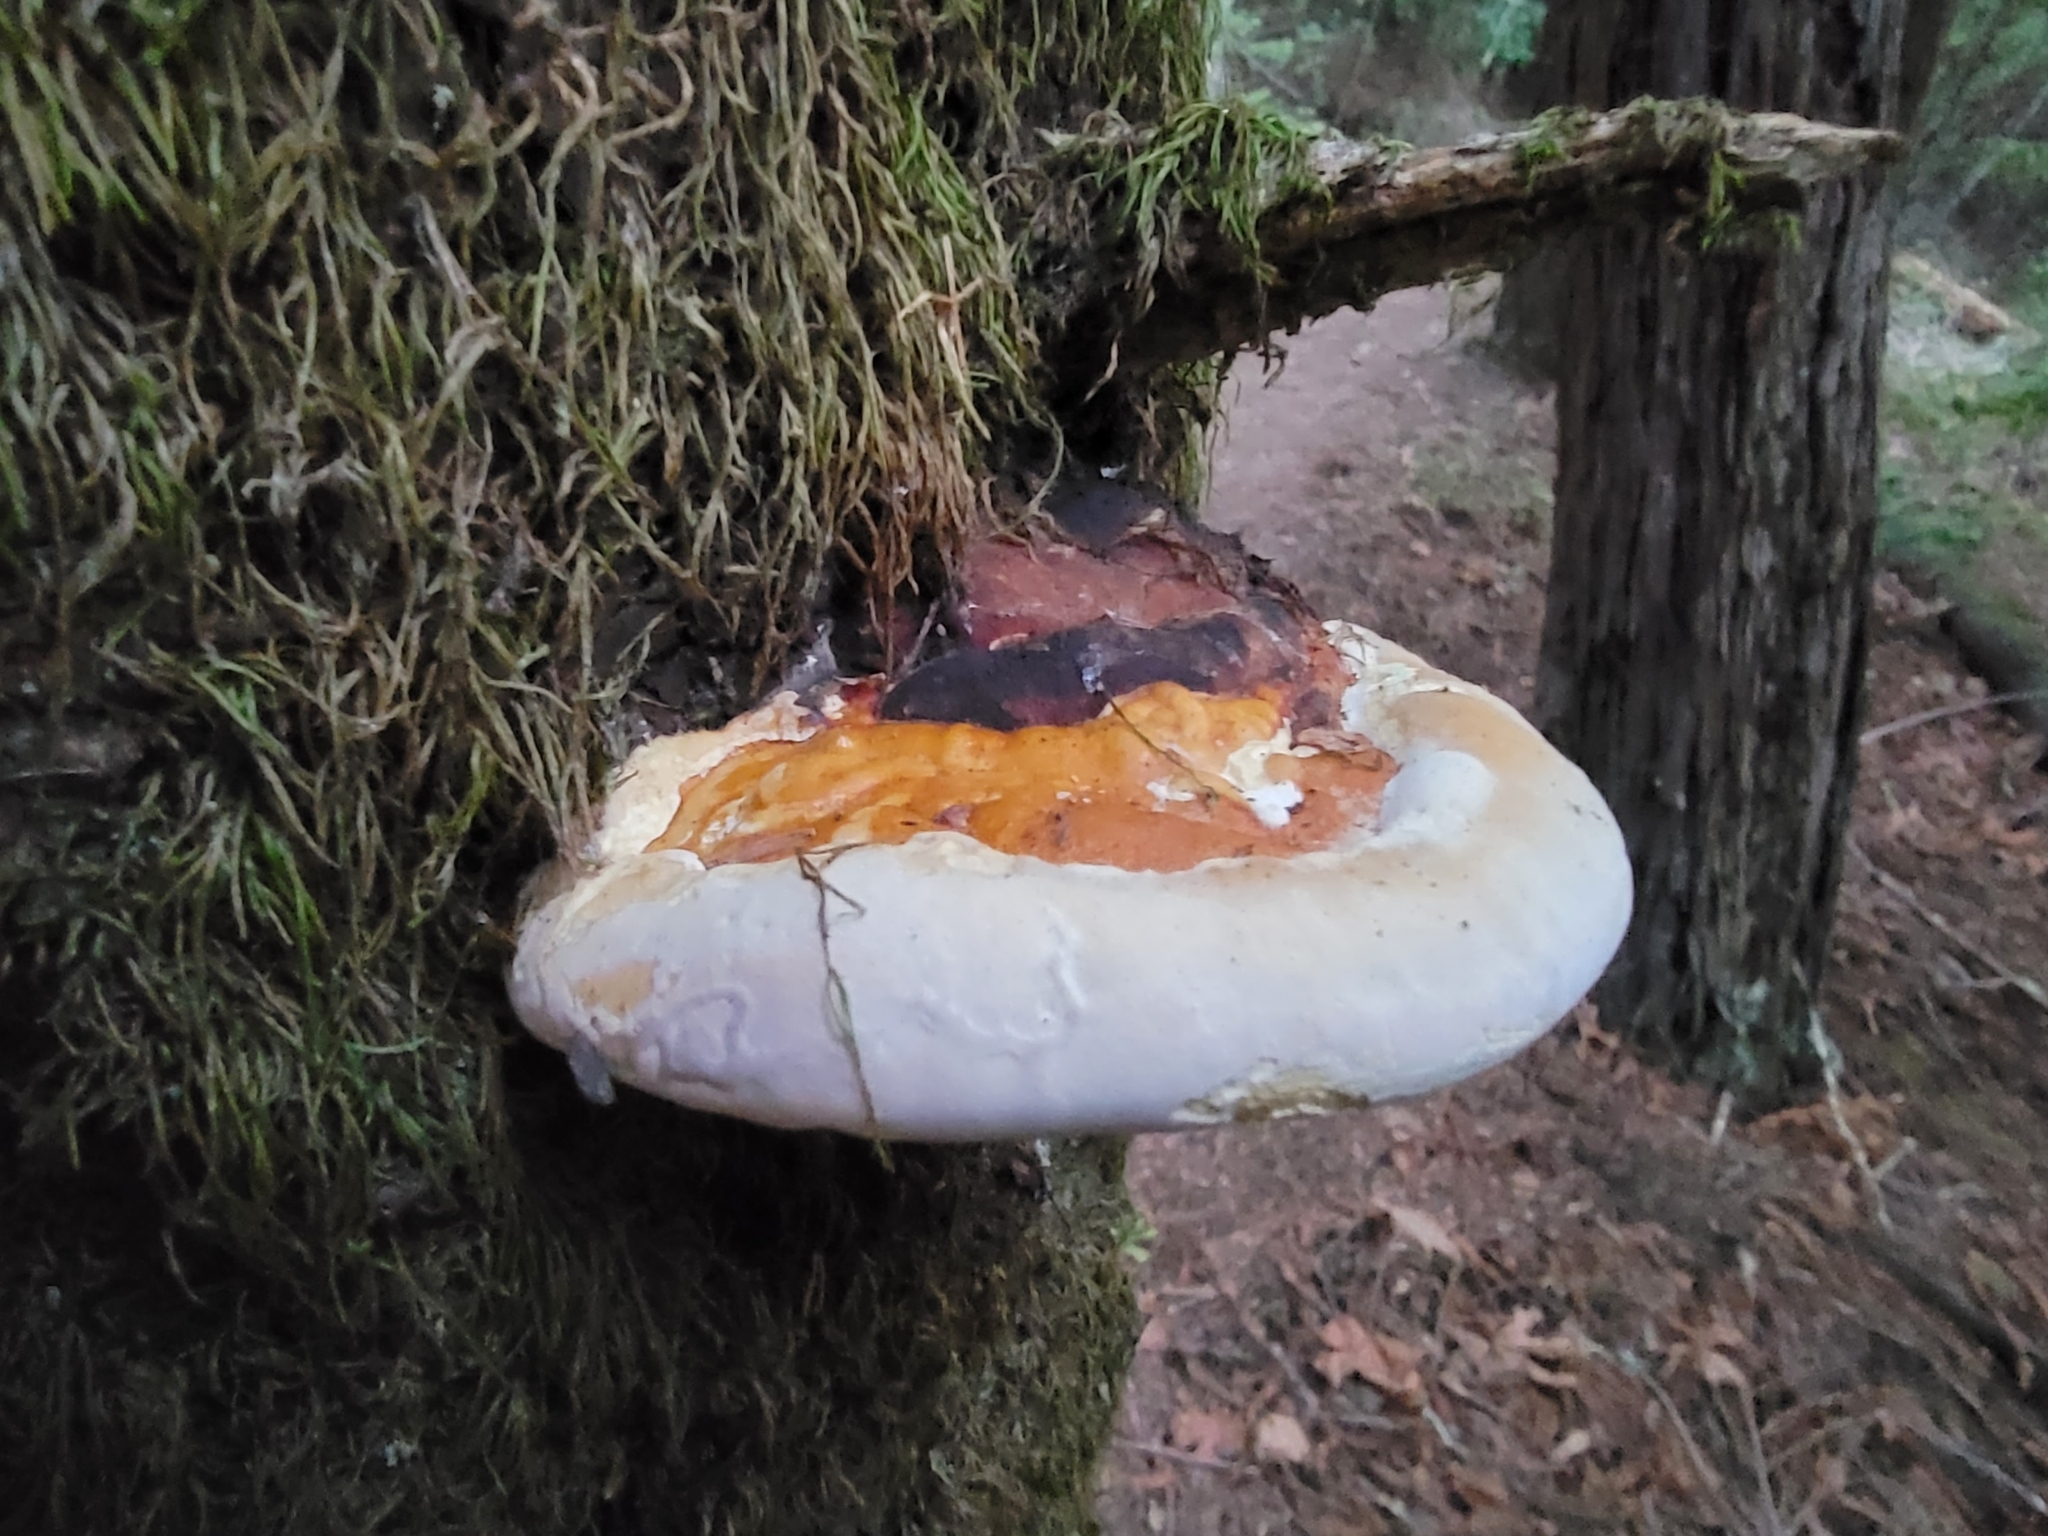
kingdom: Fungi
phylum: Basidiomycota
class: Agaricomycetes
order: Polyporales
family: Fomitopsidaceae
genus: Fomitopsis
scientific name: Fomitopsis mounceae
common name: Northern red belt
